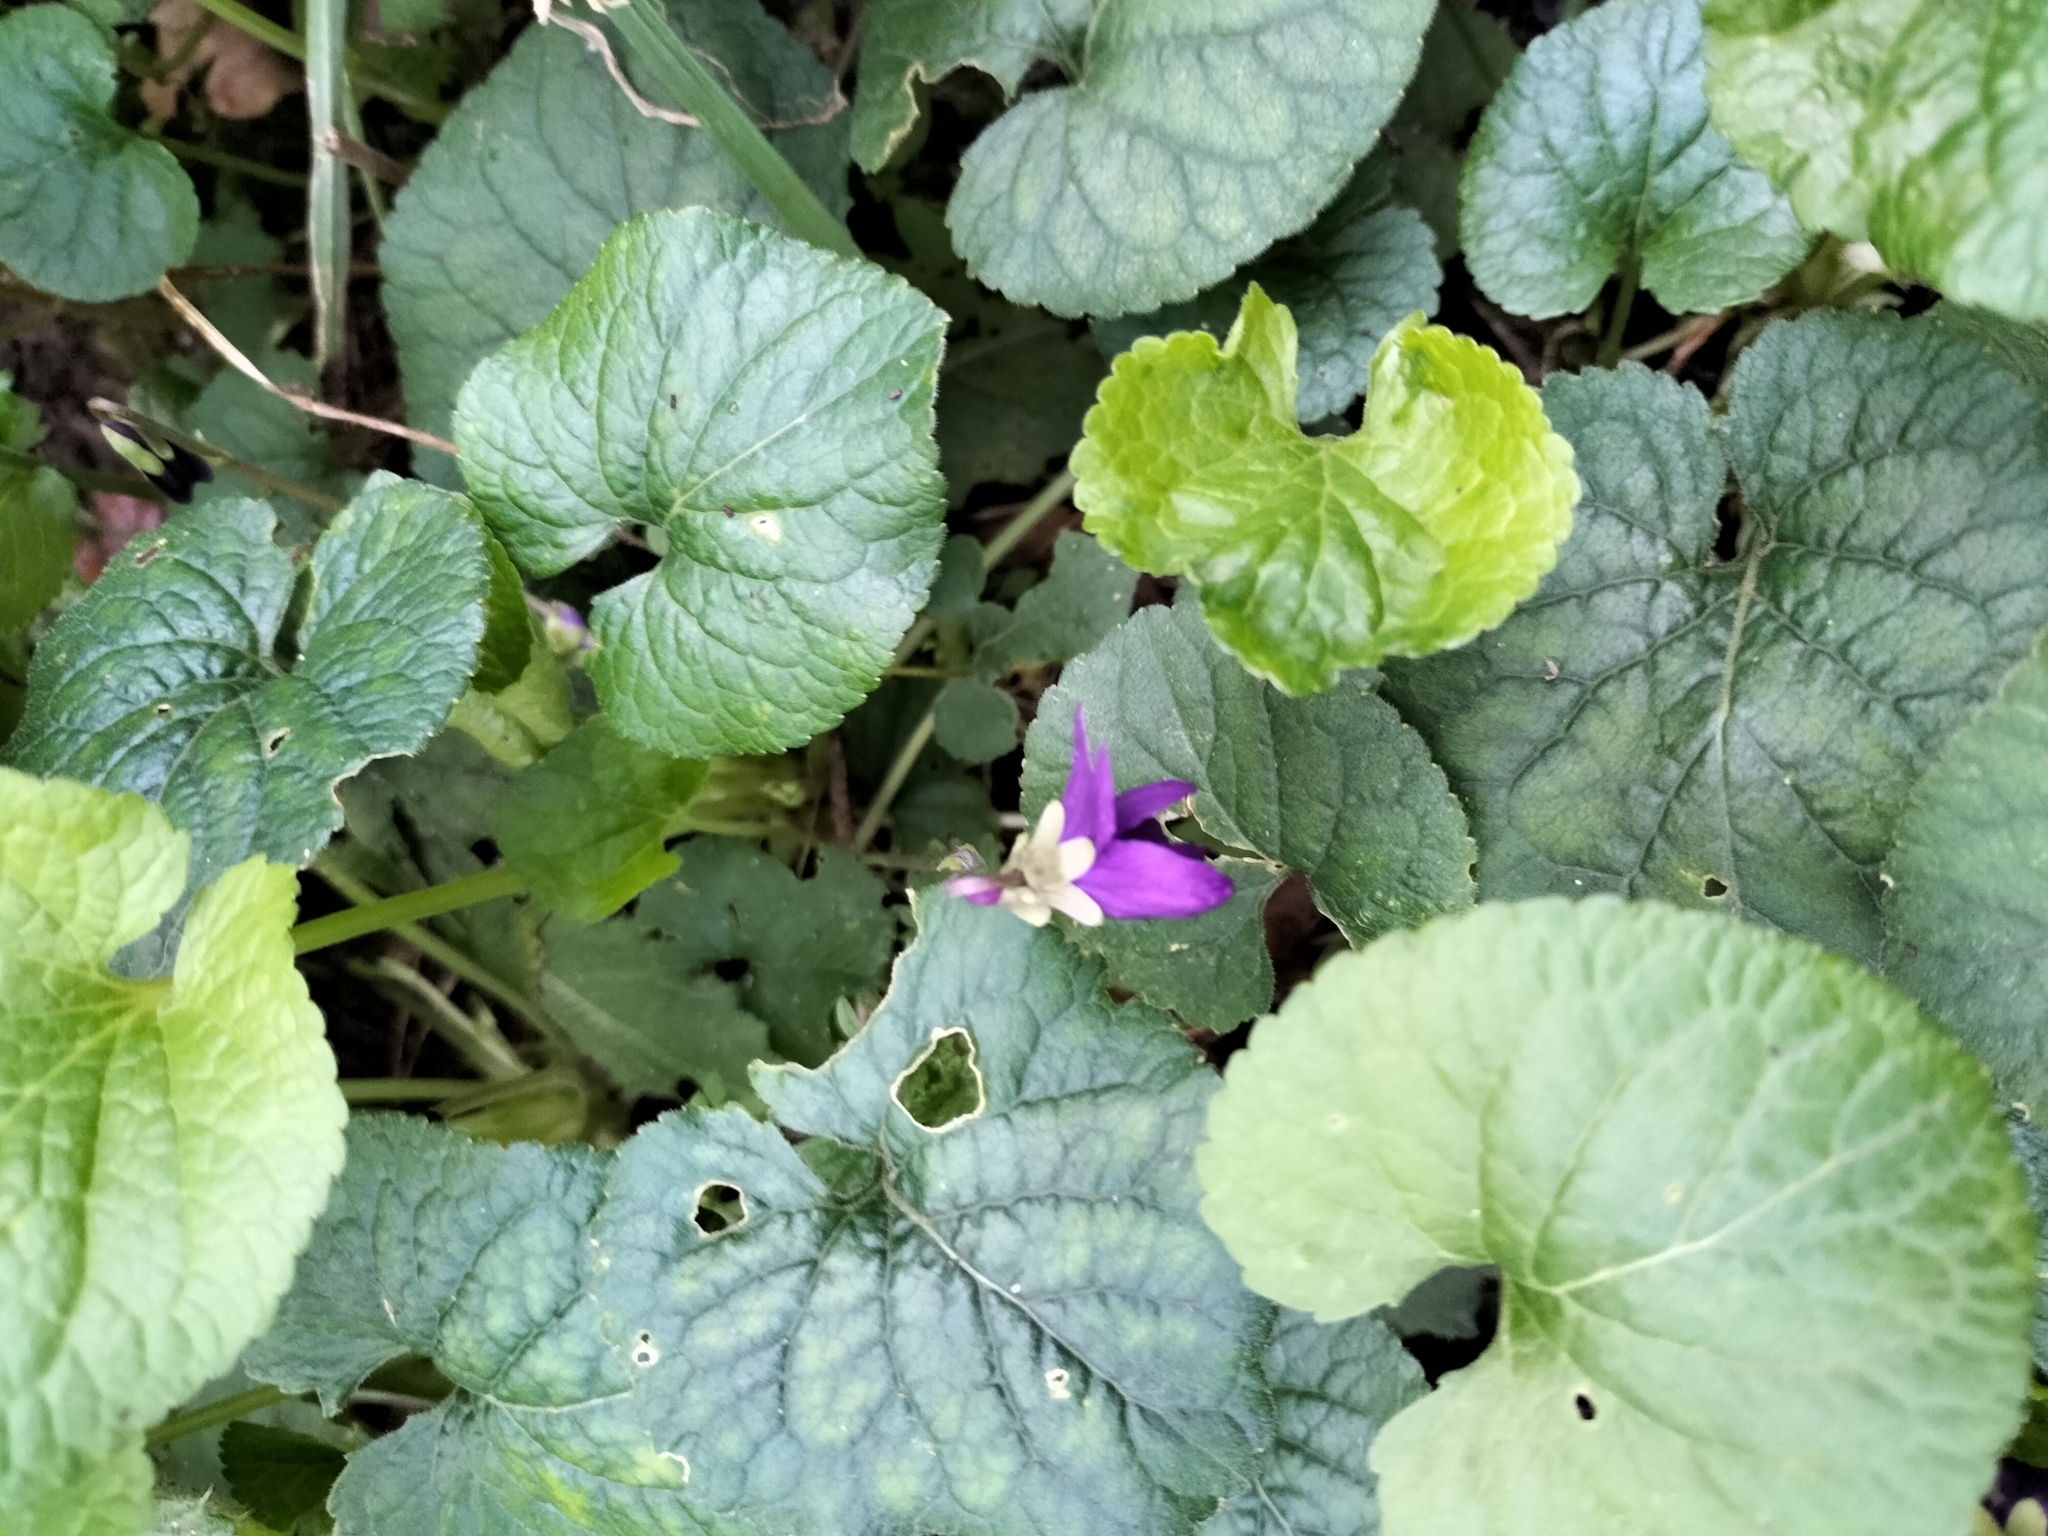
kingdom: Plantae
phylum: Tracheophyta
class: Magnoliopsida
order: Malpighiales
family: Violaceae
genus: Viola
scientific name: Viola odorata
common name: Sweet violet
